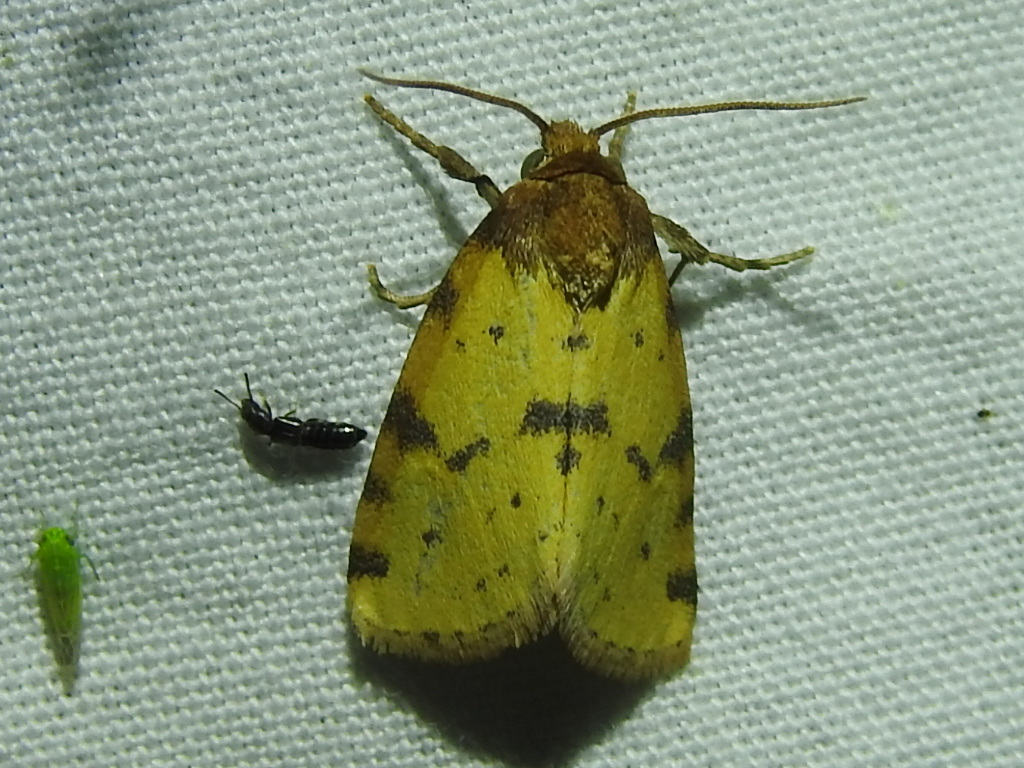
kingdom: Animalia
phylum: Arthropoda
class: Insecta
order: Lepidoptera
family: Noctuidae
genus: Azenia
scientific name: Azenia obtusa
